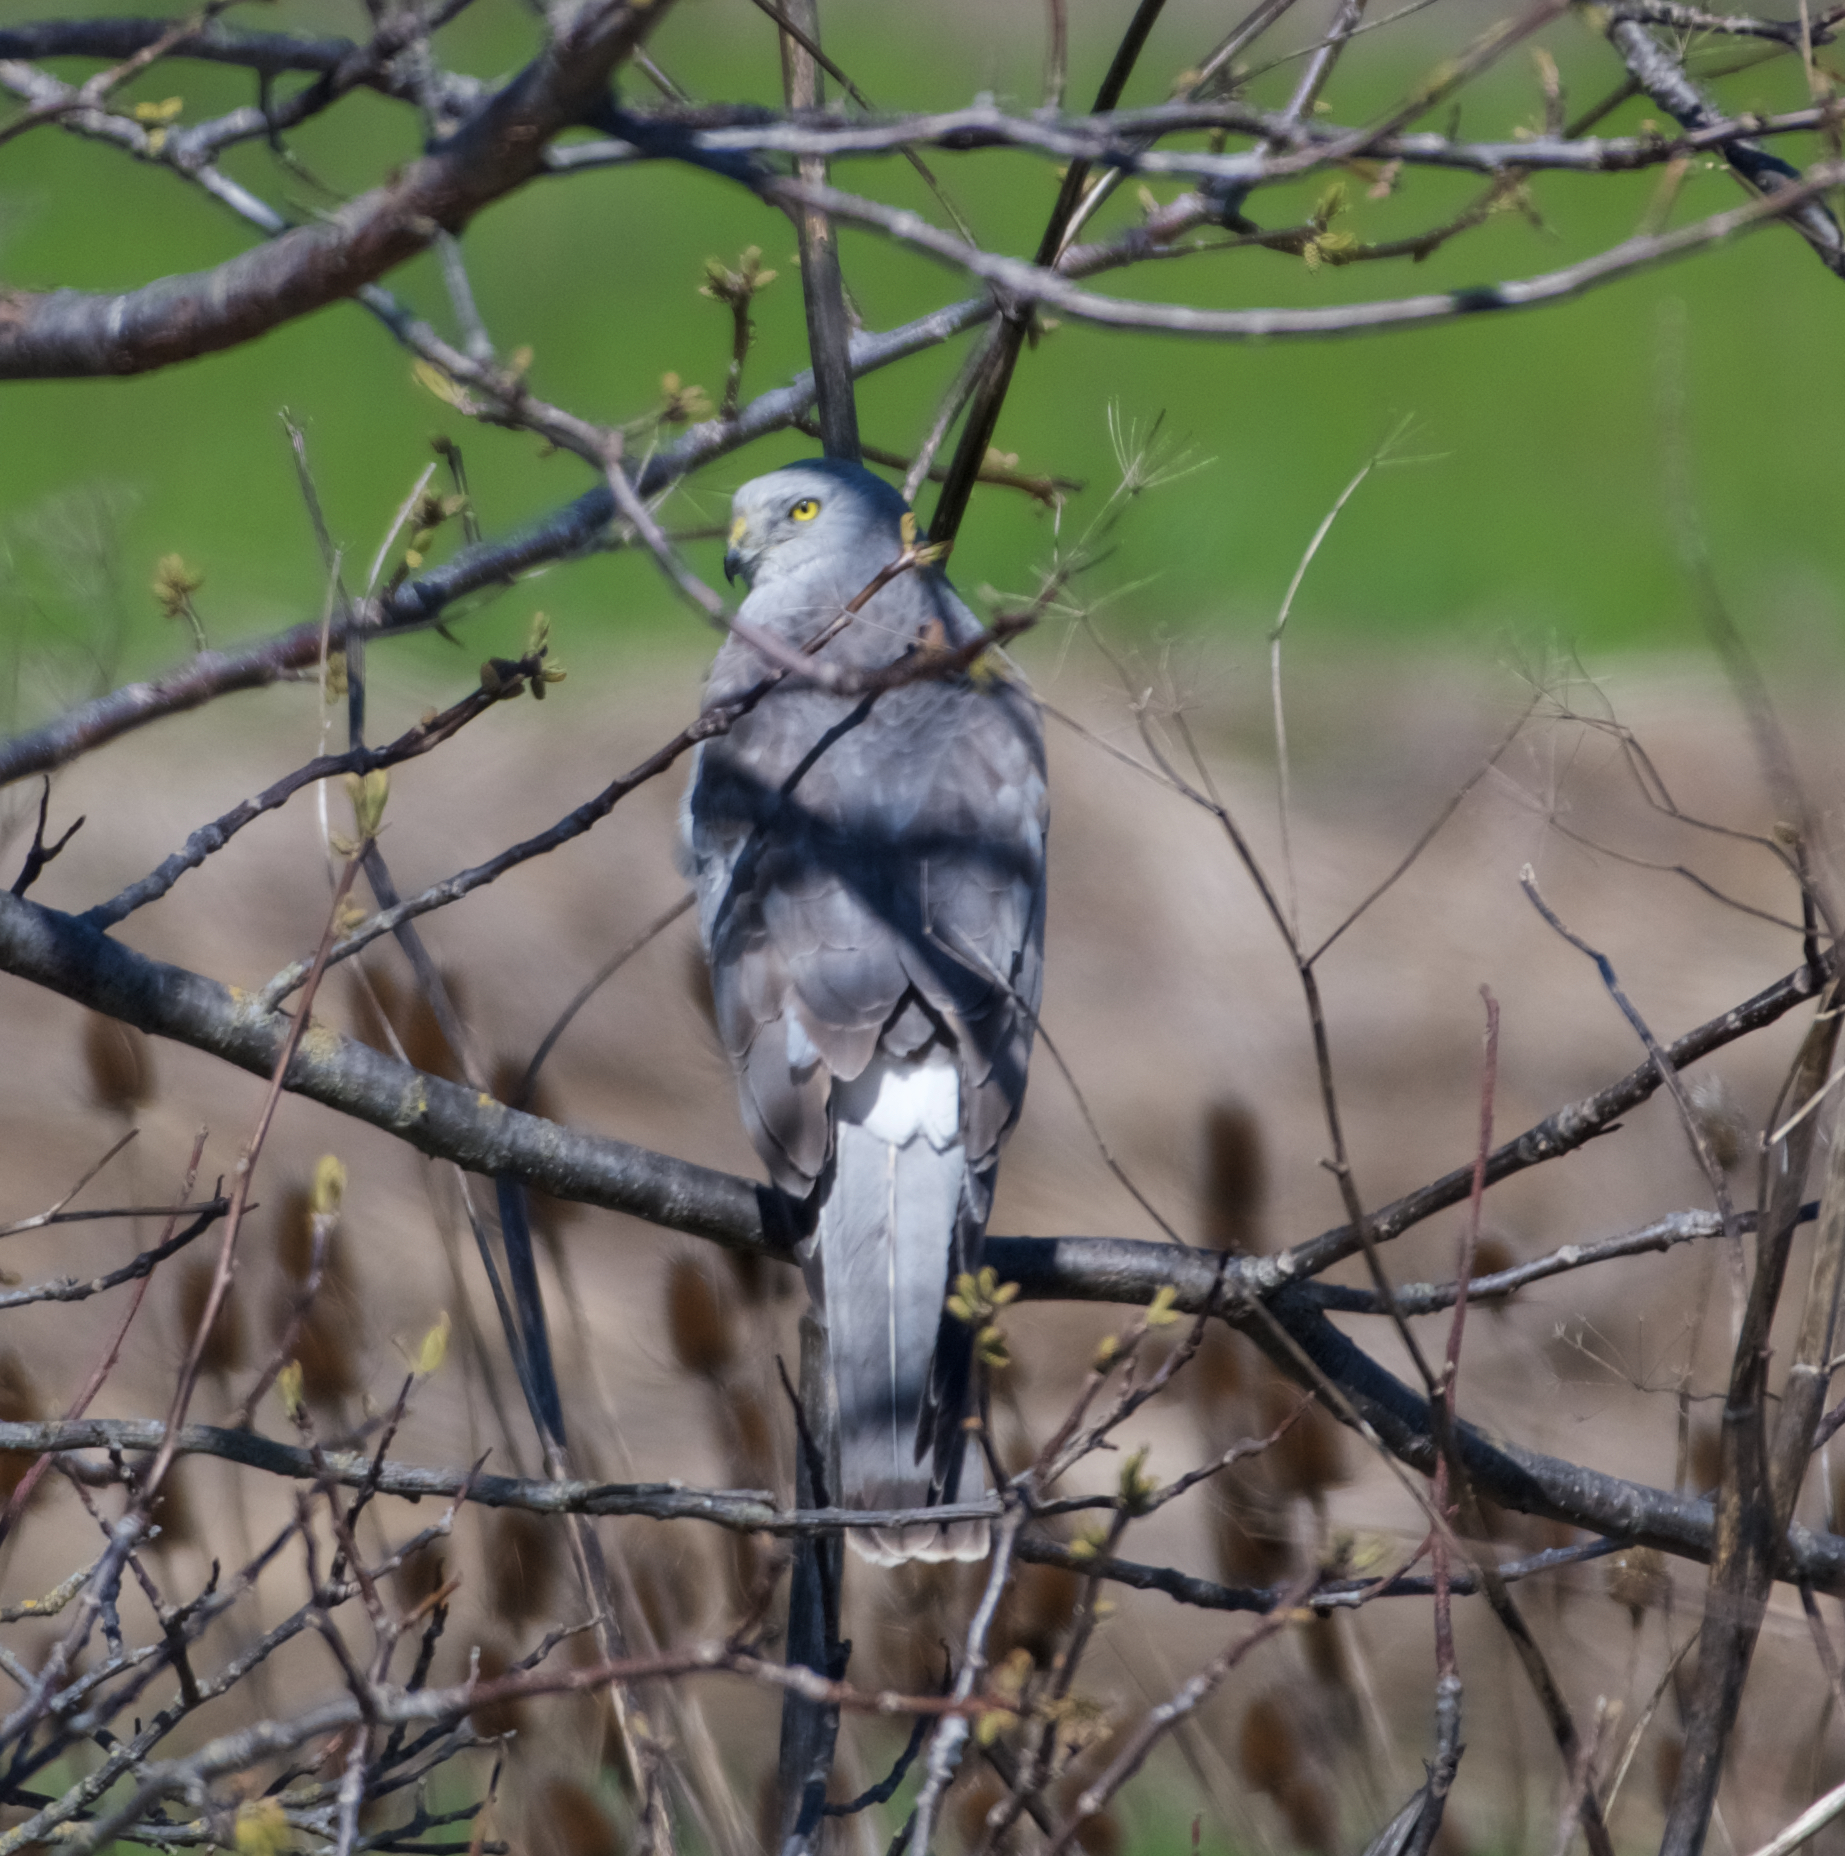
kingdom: Animalia
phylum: Chordata
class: Aves
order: Accipitriformes
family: Accipitridae
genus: Circus
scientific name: Circus cyaneus
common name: Hen harrier
